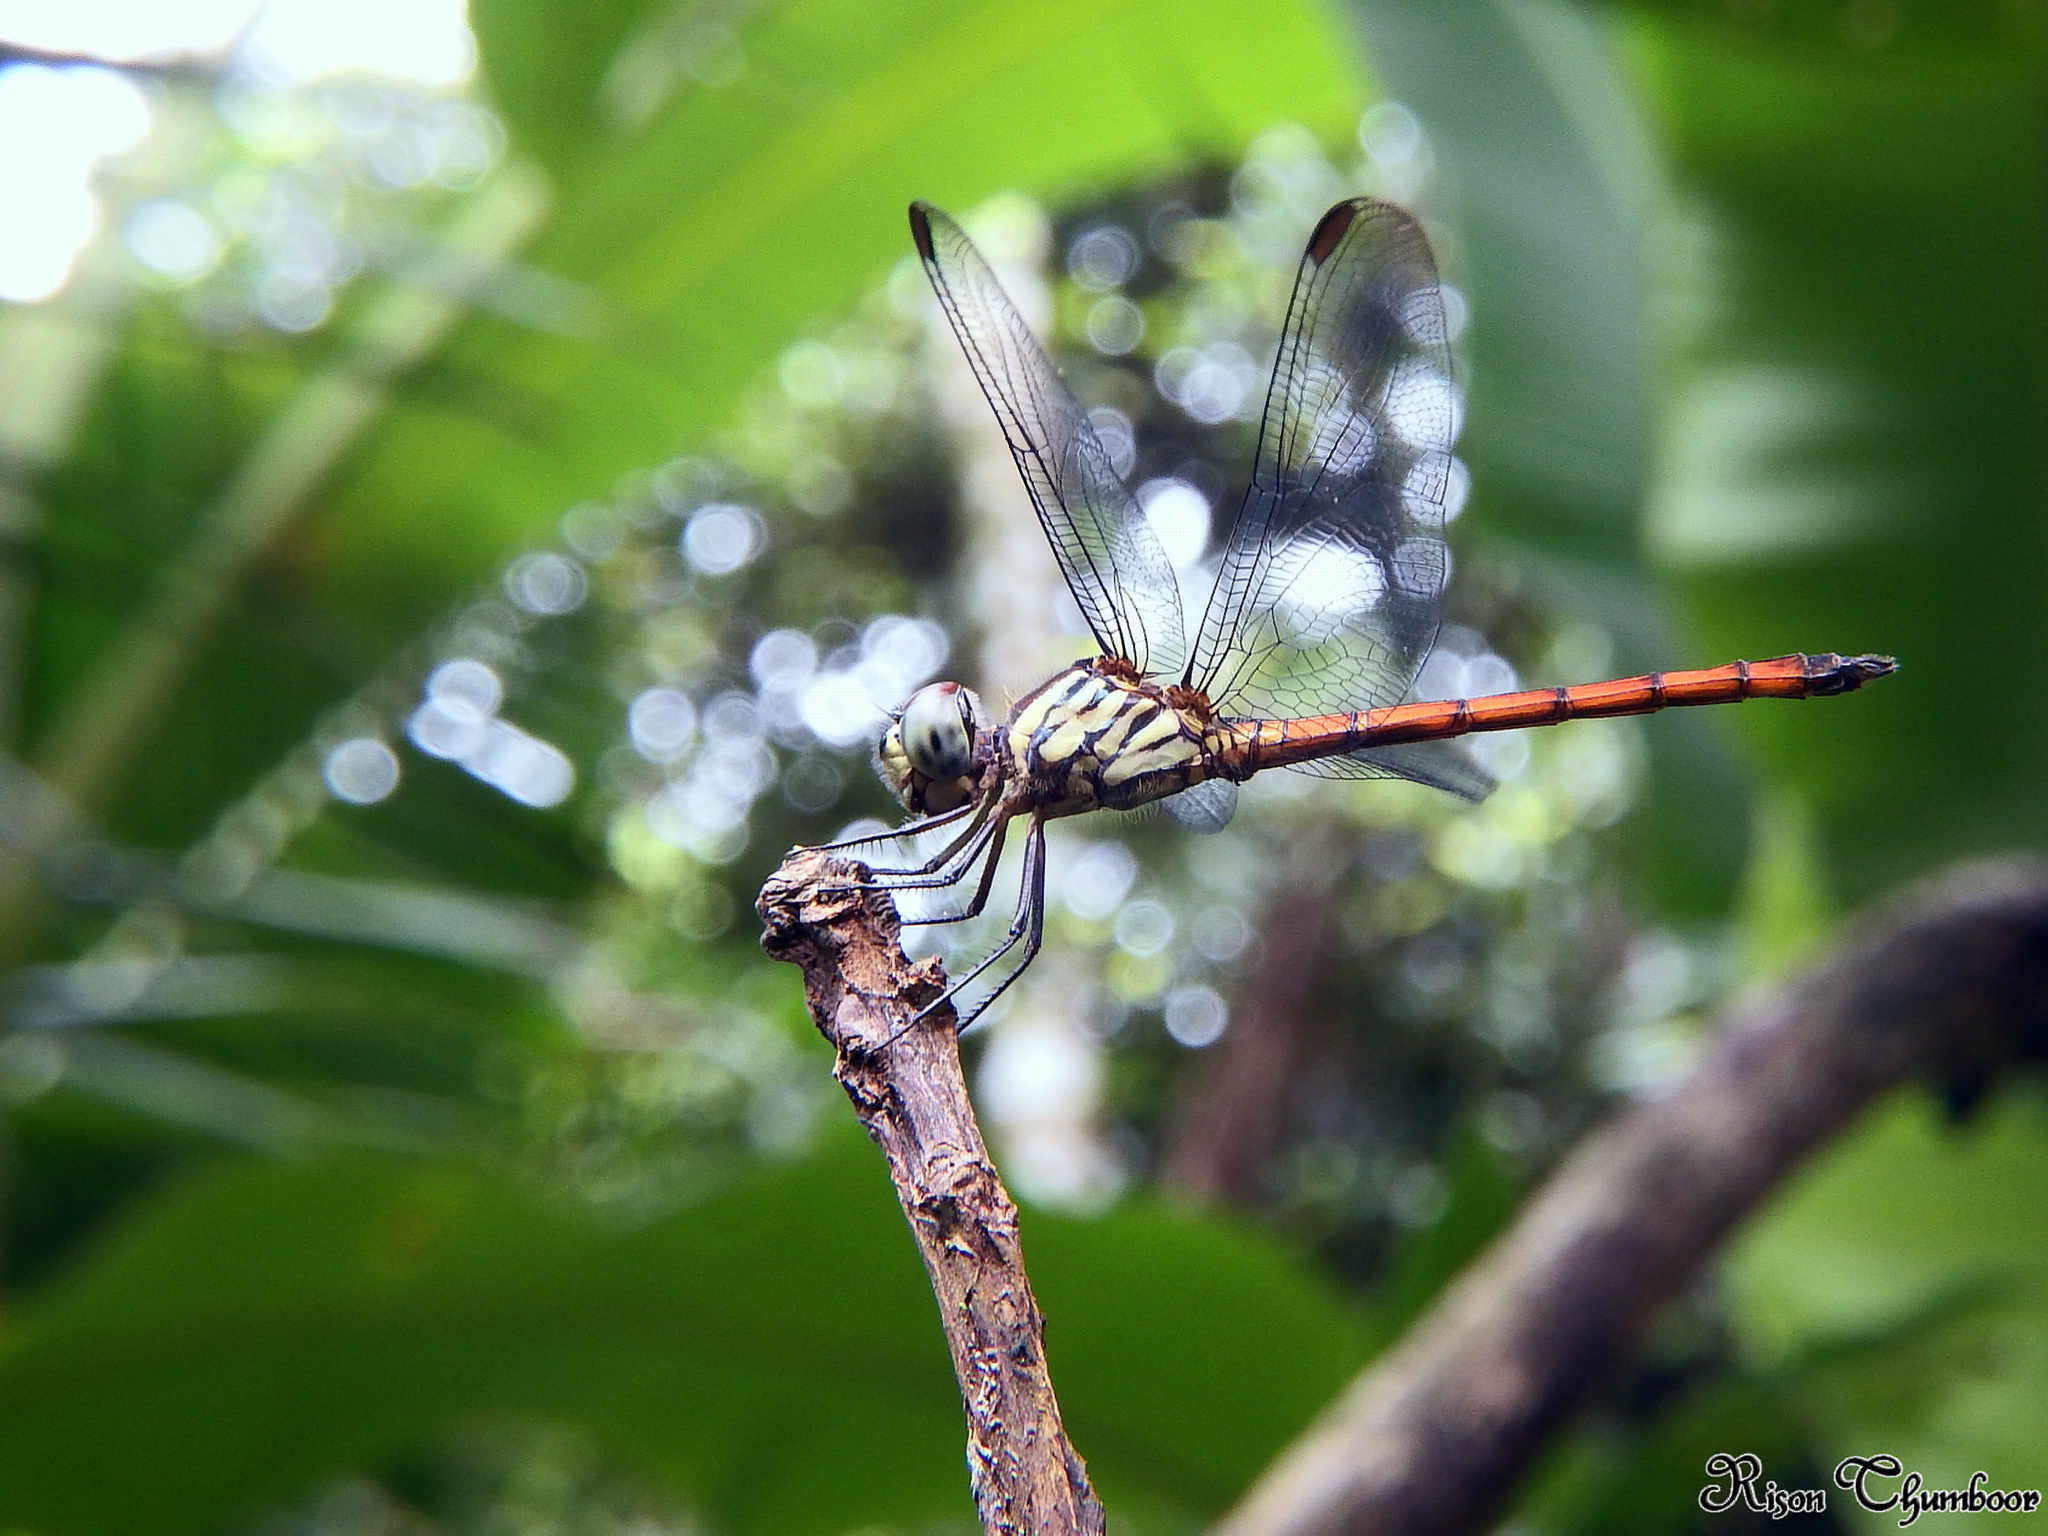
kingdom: Animalia
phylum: Arthropoda
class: Insecta
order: Odonata
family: Libellulidae
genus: Lathrecista
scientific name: Lathrecista asiatica
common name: Scarlet grenadier
